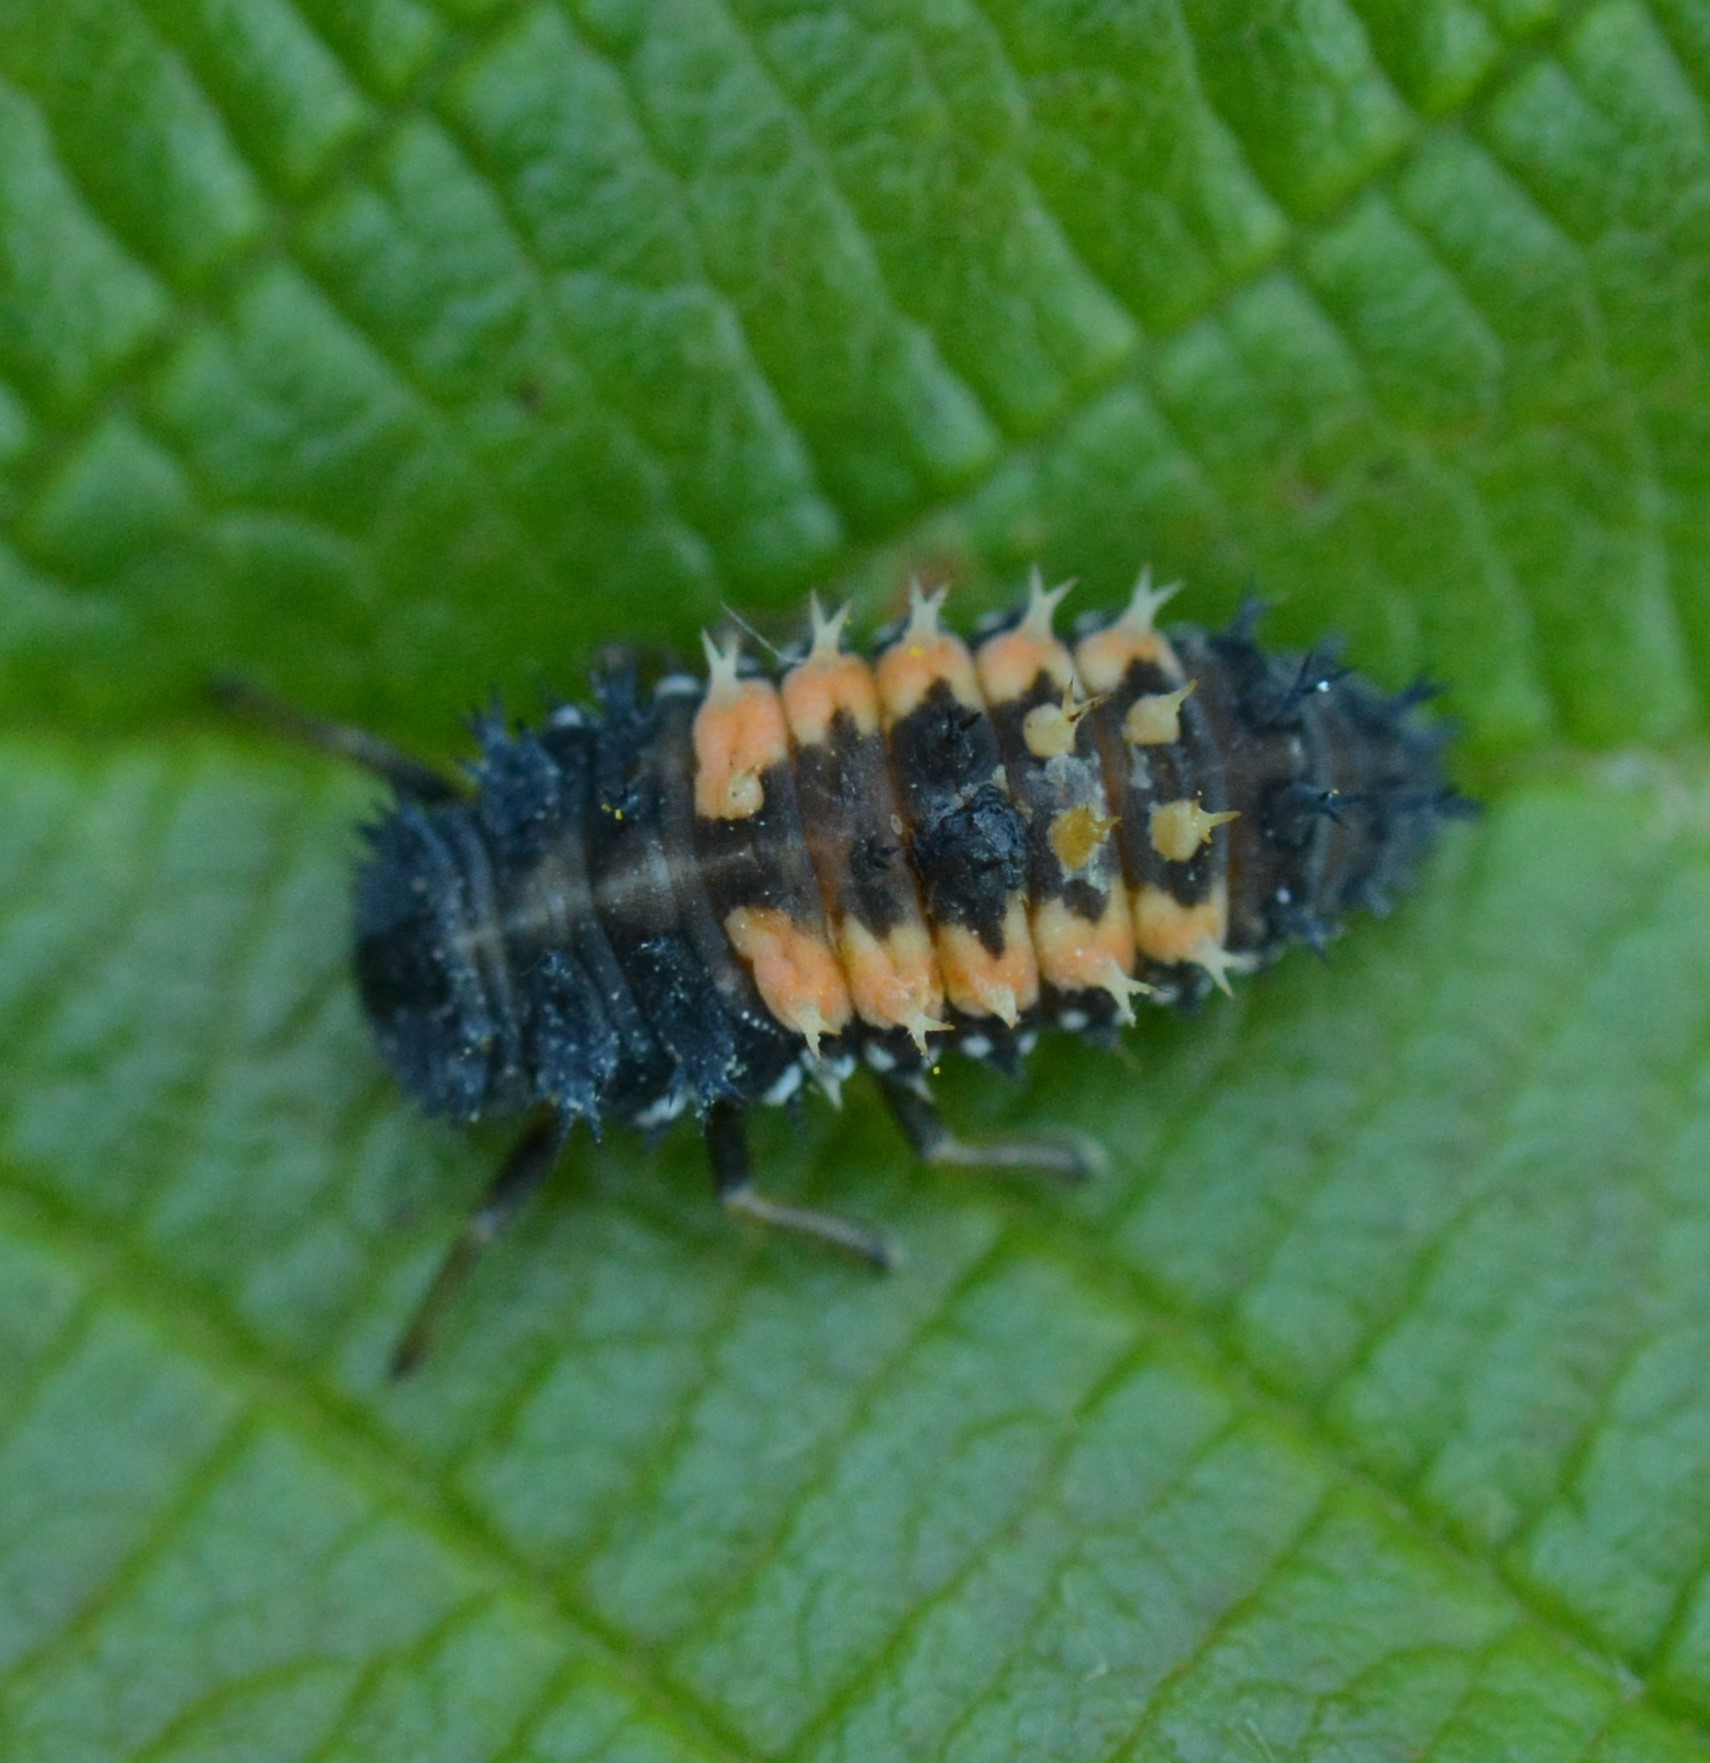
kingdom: Animalia
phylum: Arthropoda
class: Insecta
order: Coleoptera
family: Coccinellidae
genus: Harmonia
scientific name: Harmonia axyridis
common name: Harlequin ladybird
